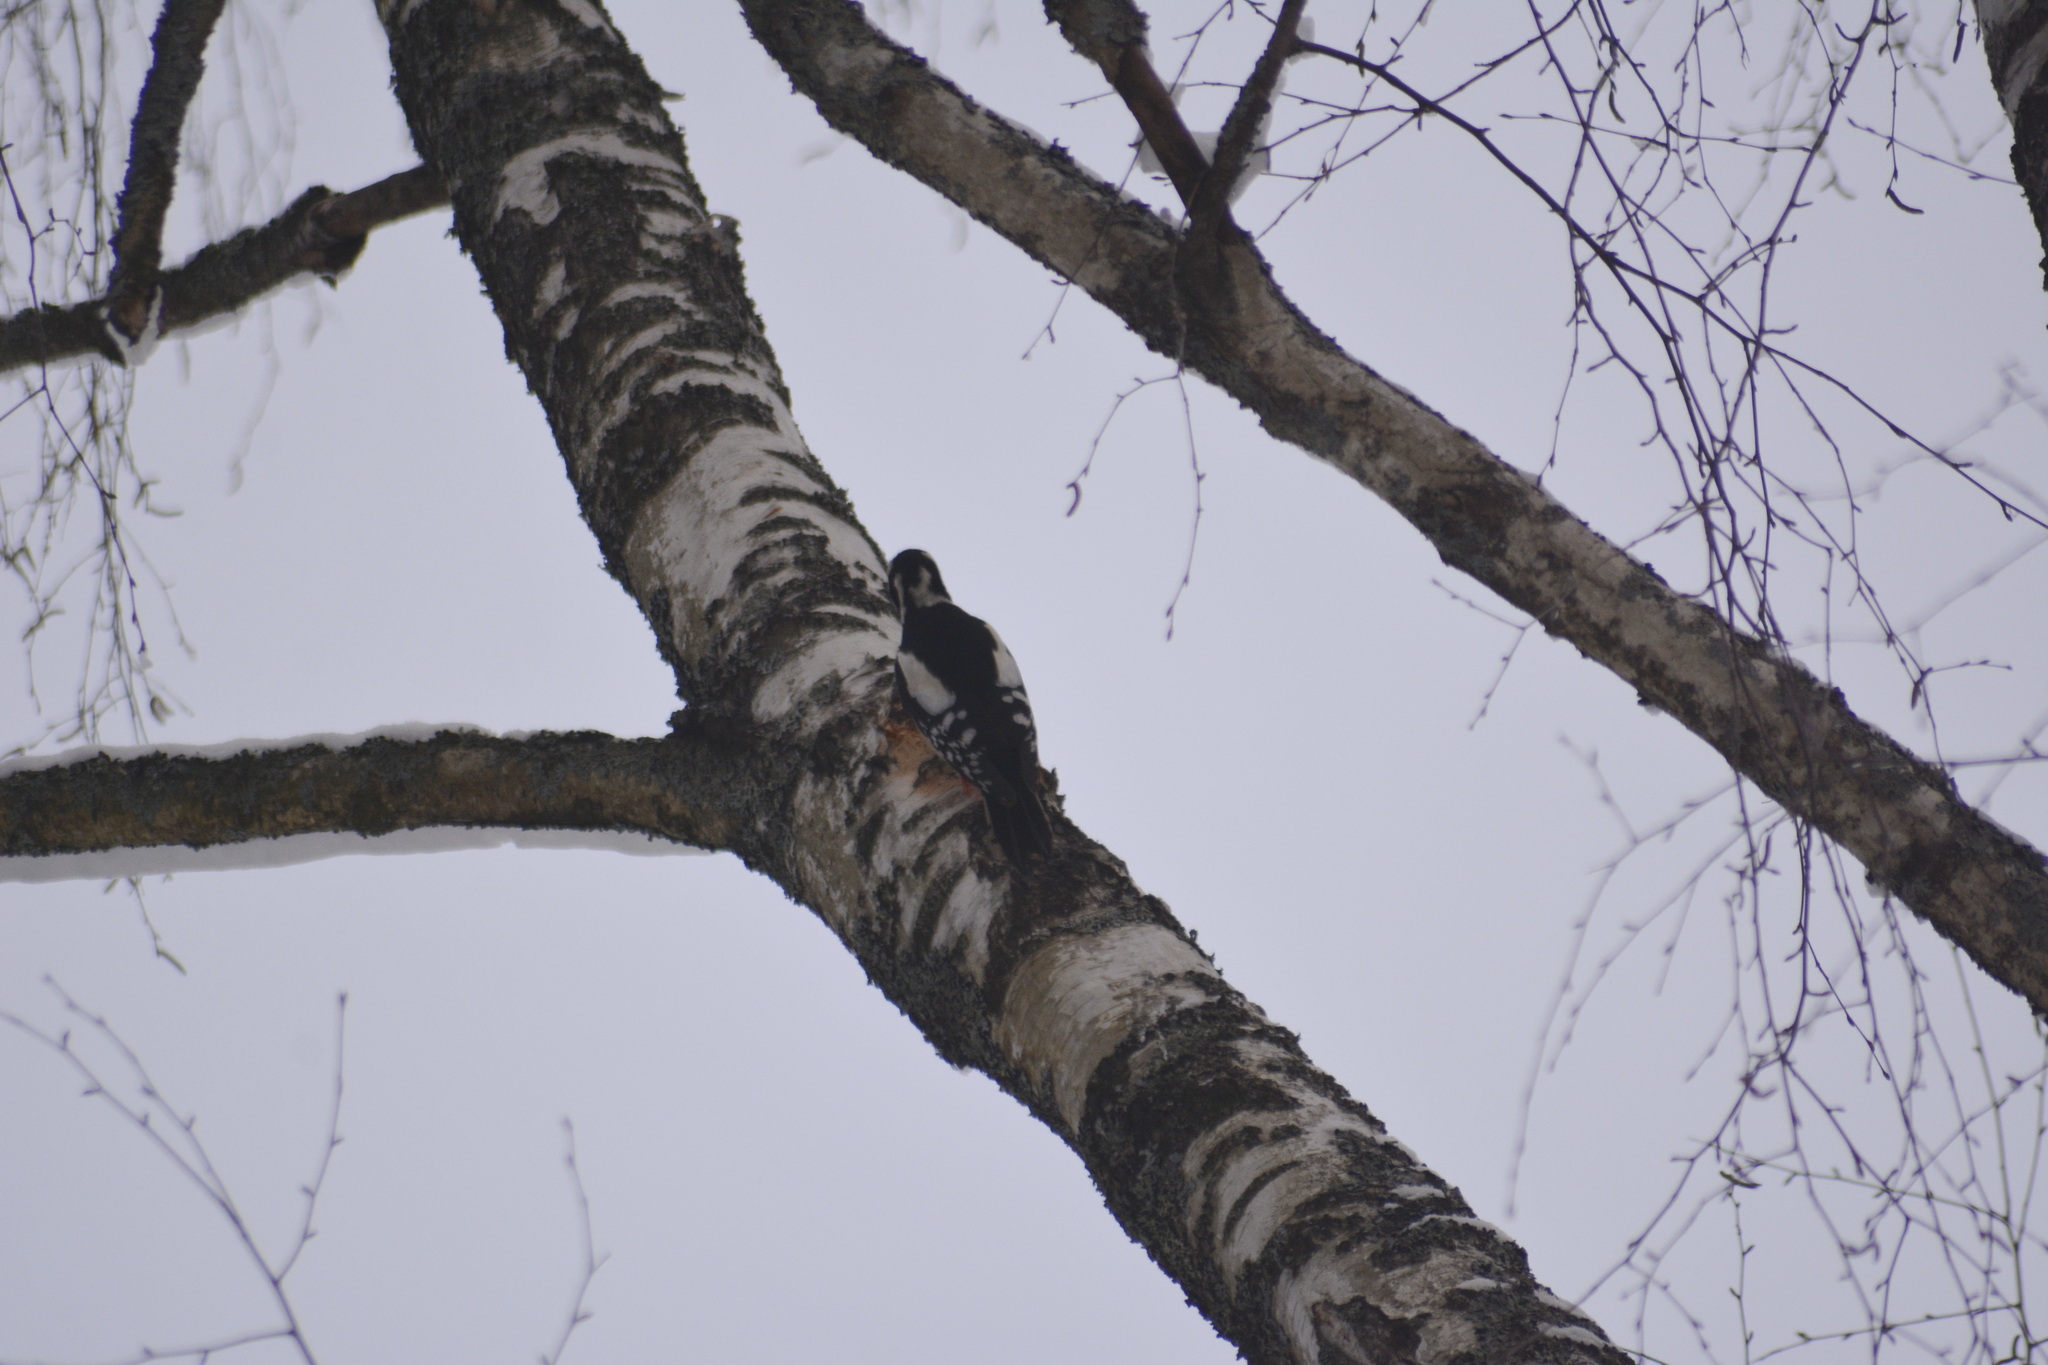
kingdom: Animalia
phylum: Chordata
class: Aves
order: Piciformes
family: Picidae
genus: Dendrocopos
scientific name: Dendrocopos major
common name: Great spotted woodpecker
